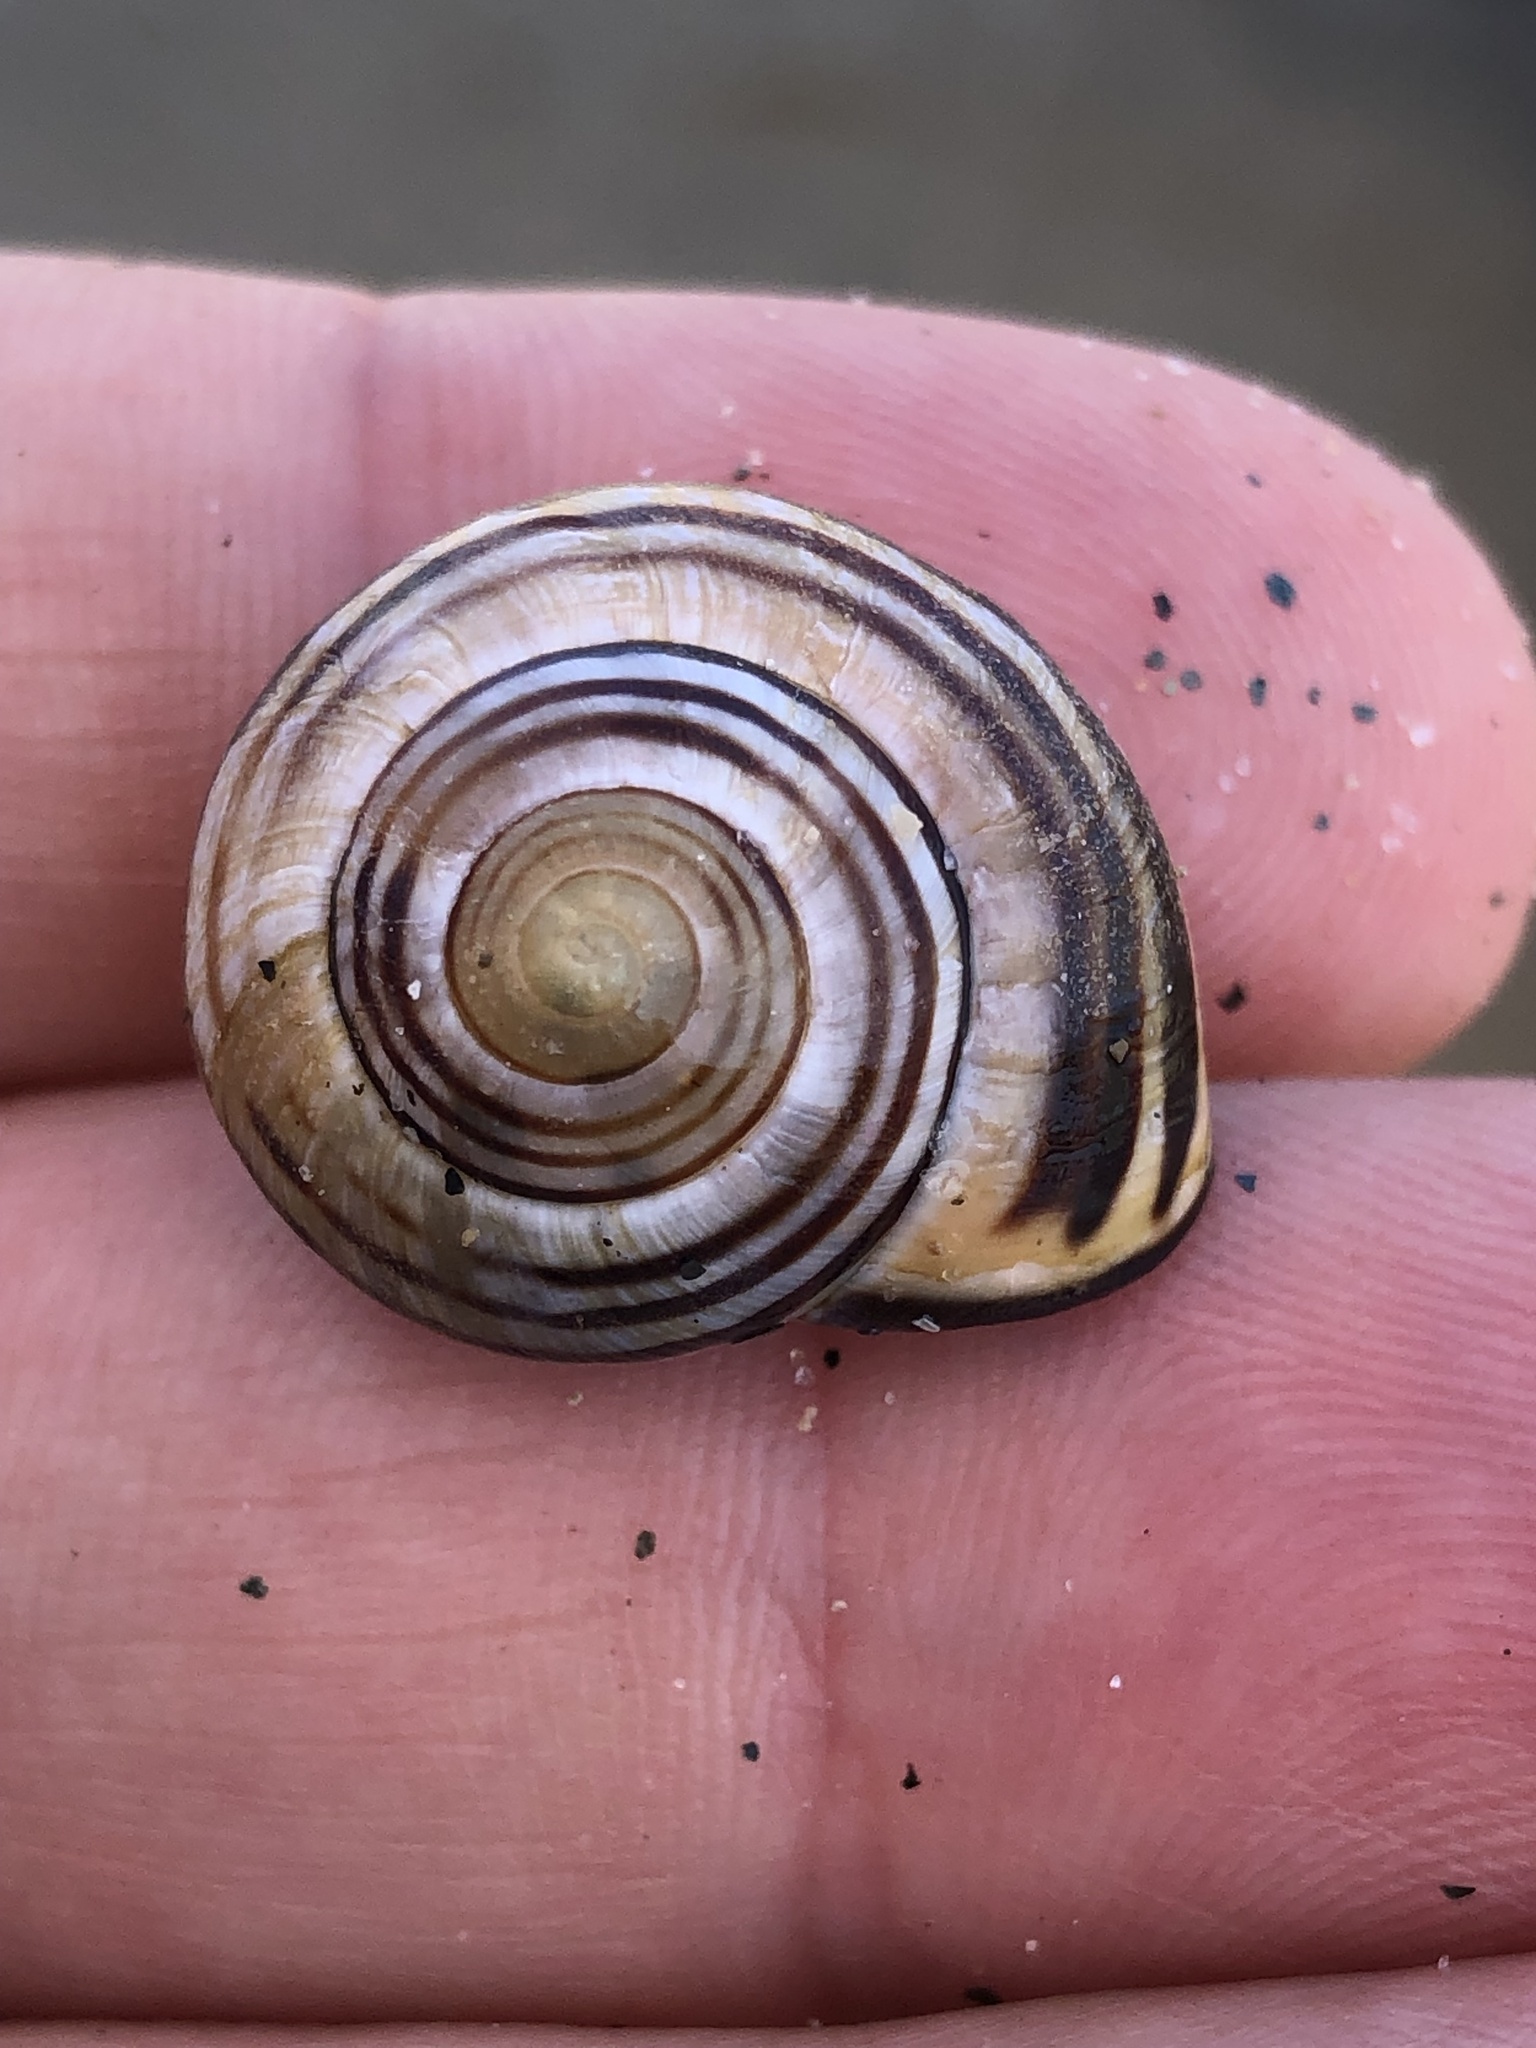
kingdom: Animalia
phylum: Mollusca
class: Gastropoda
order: Stylommatophora
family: Helicidae
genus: Cepaea
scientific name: Cepaea nemoralis
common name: Grovesnail
